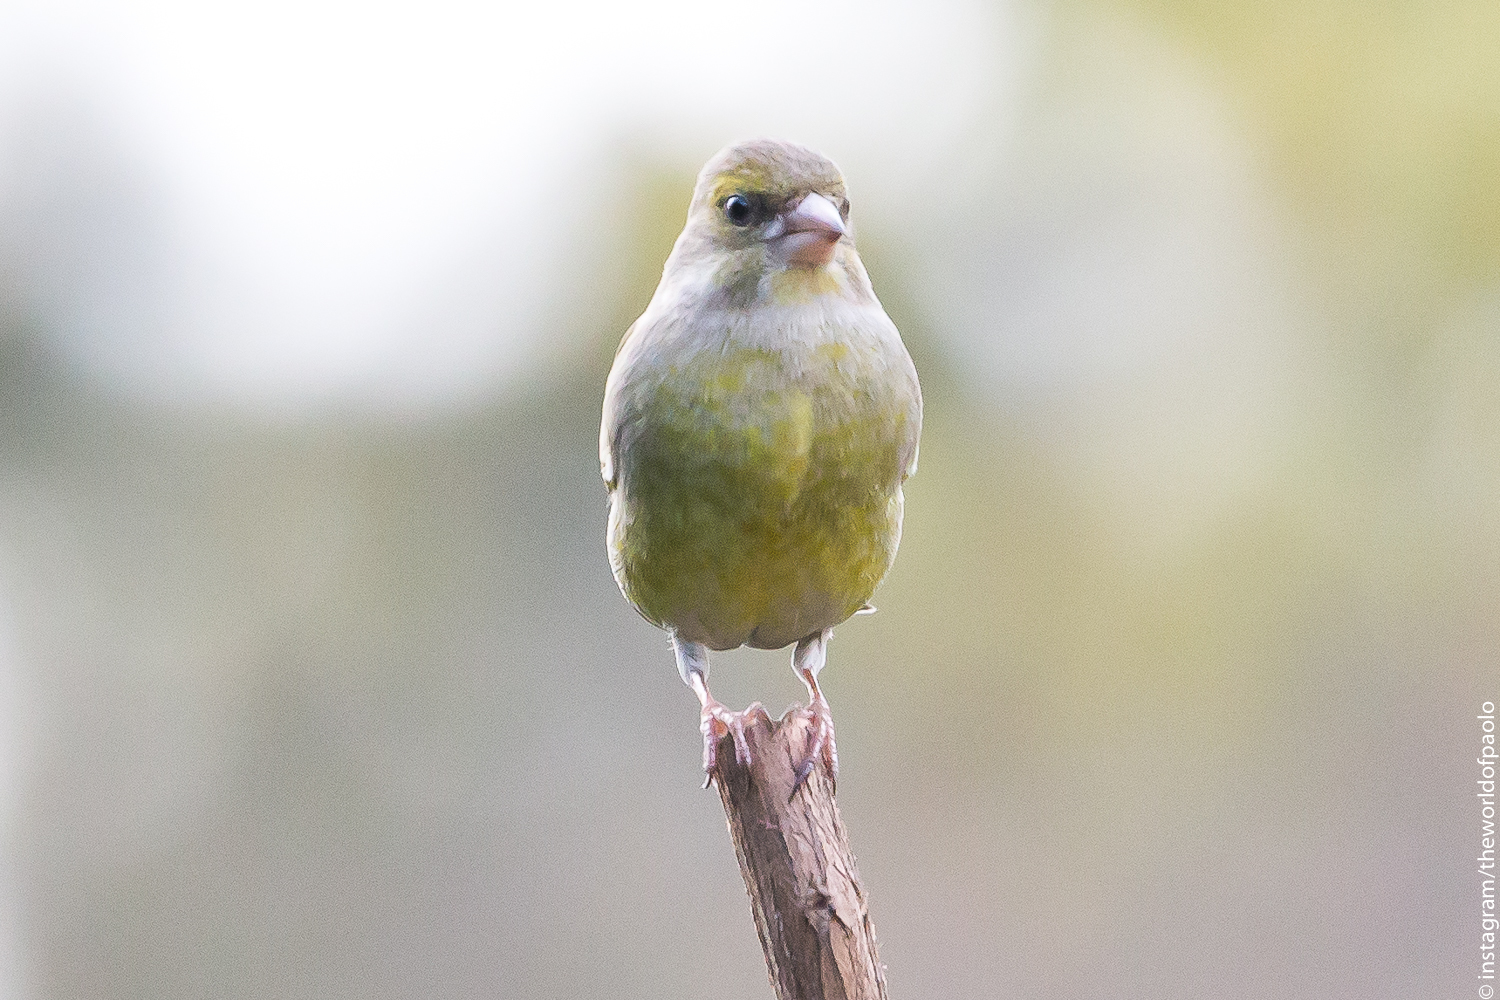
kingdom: Plantae
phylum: Tracheophyta
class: Liliopsida
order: Poales
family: Poaceae
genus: Chloris
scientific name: Chloris chloris
